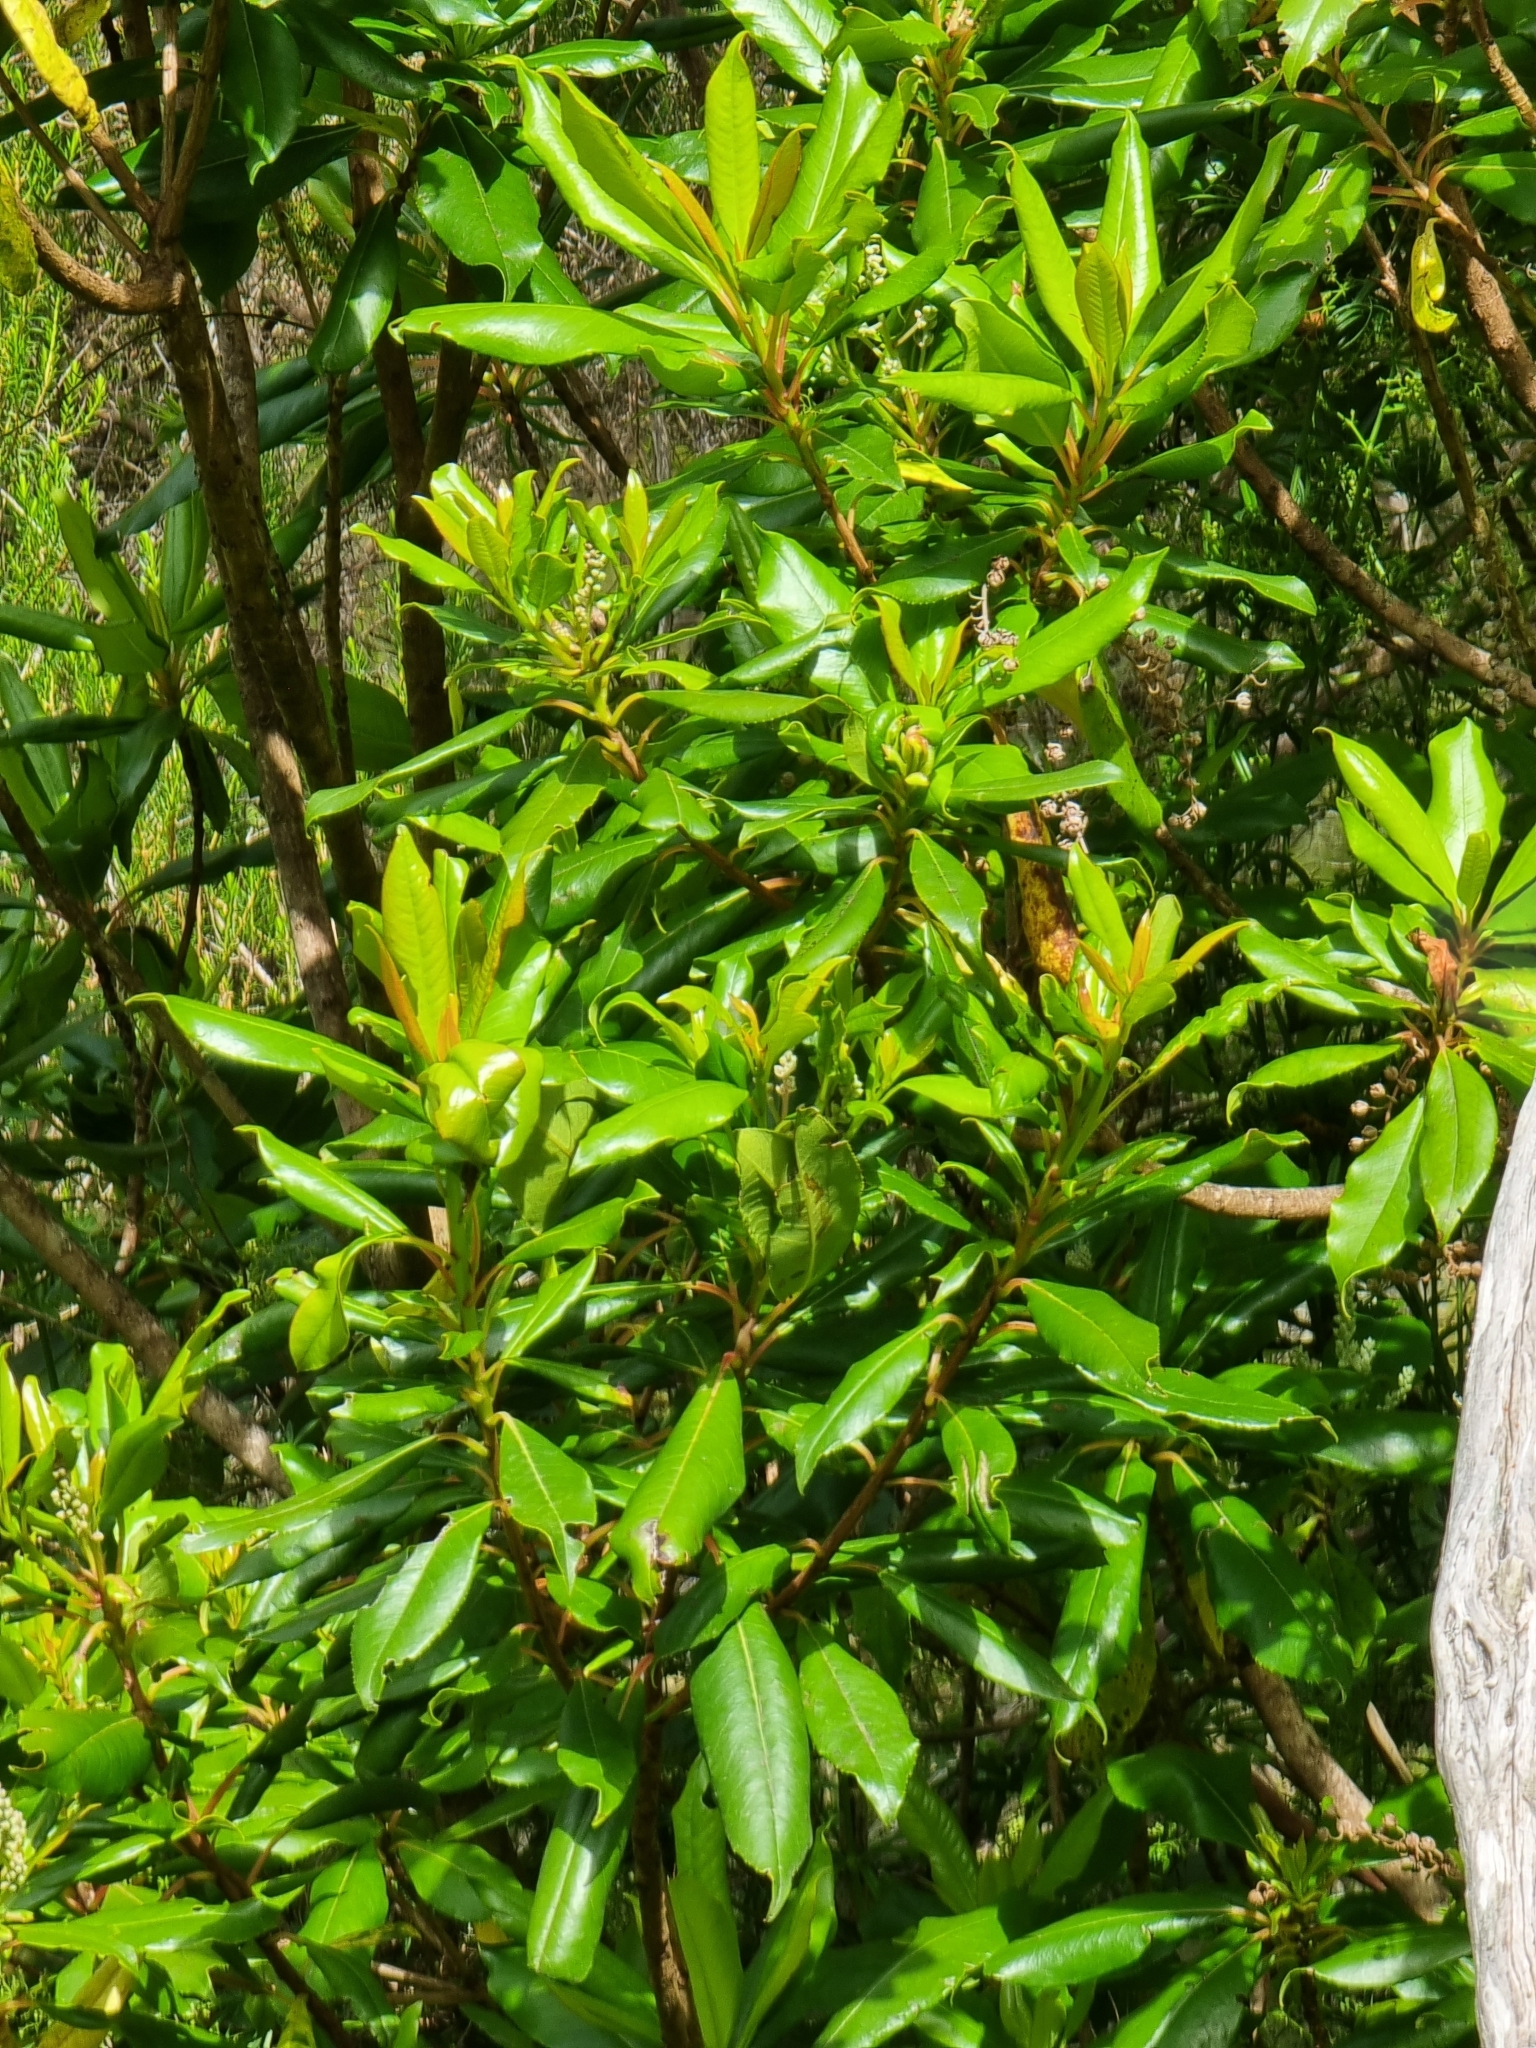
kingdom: Plantae
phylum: Tracheophyta
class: Magnoliopsida
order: Ericales
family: Clethraceae
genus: Clethra
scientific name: Clethra arborea
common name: Lily-of-the-valley-tree
